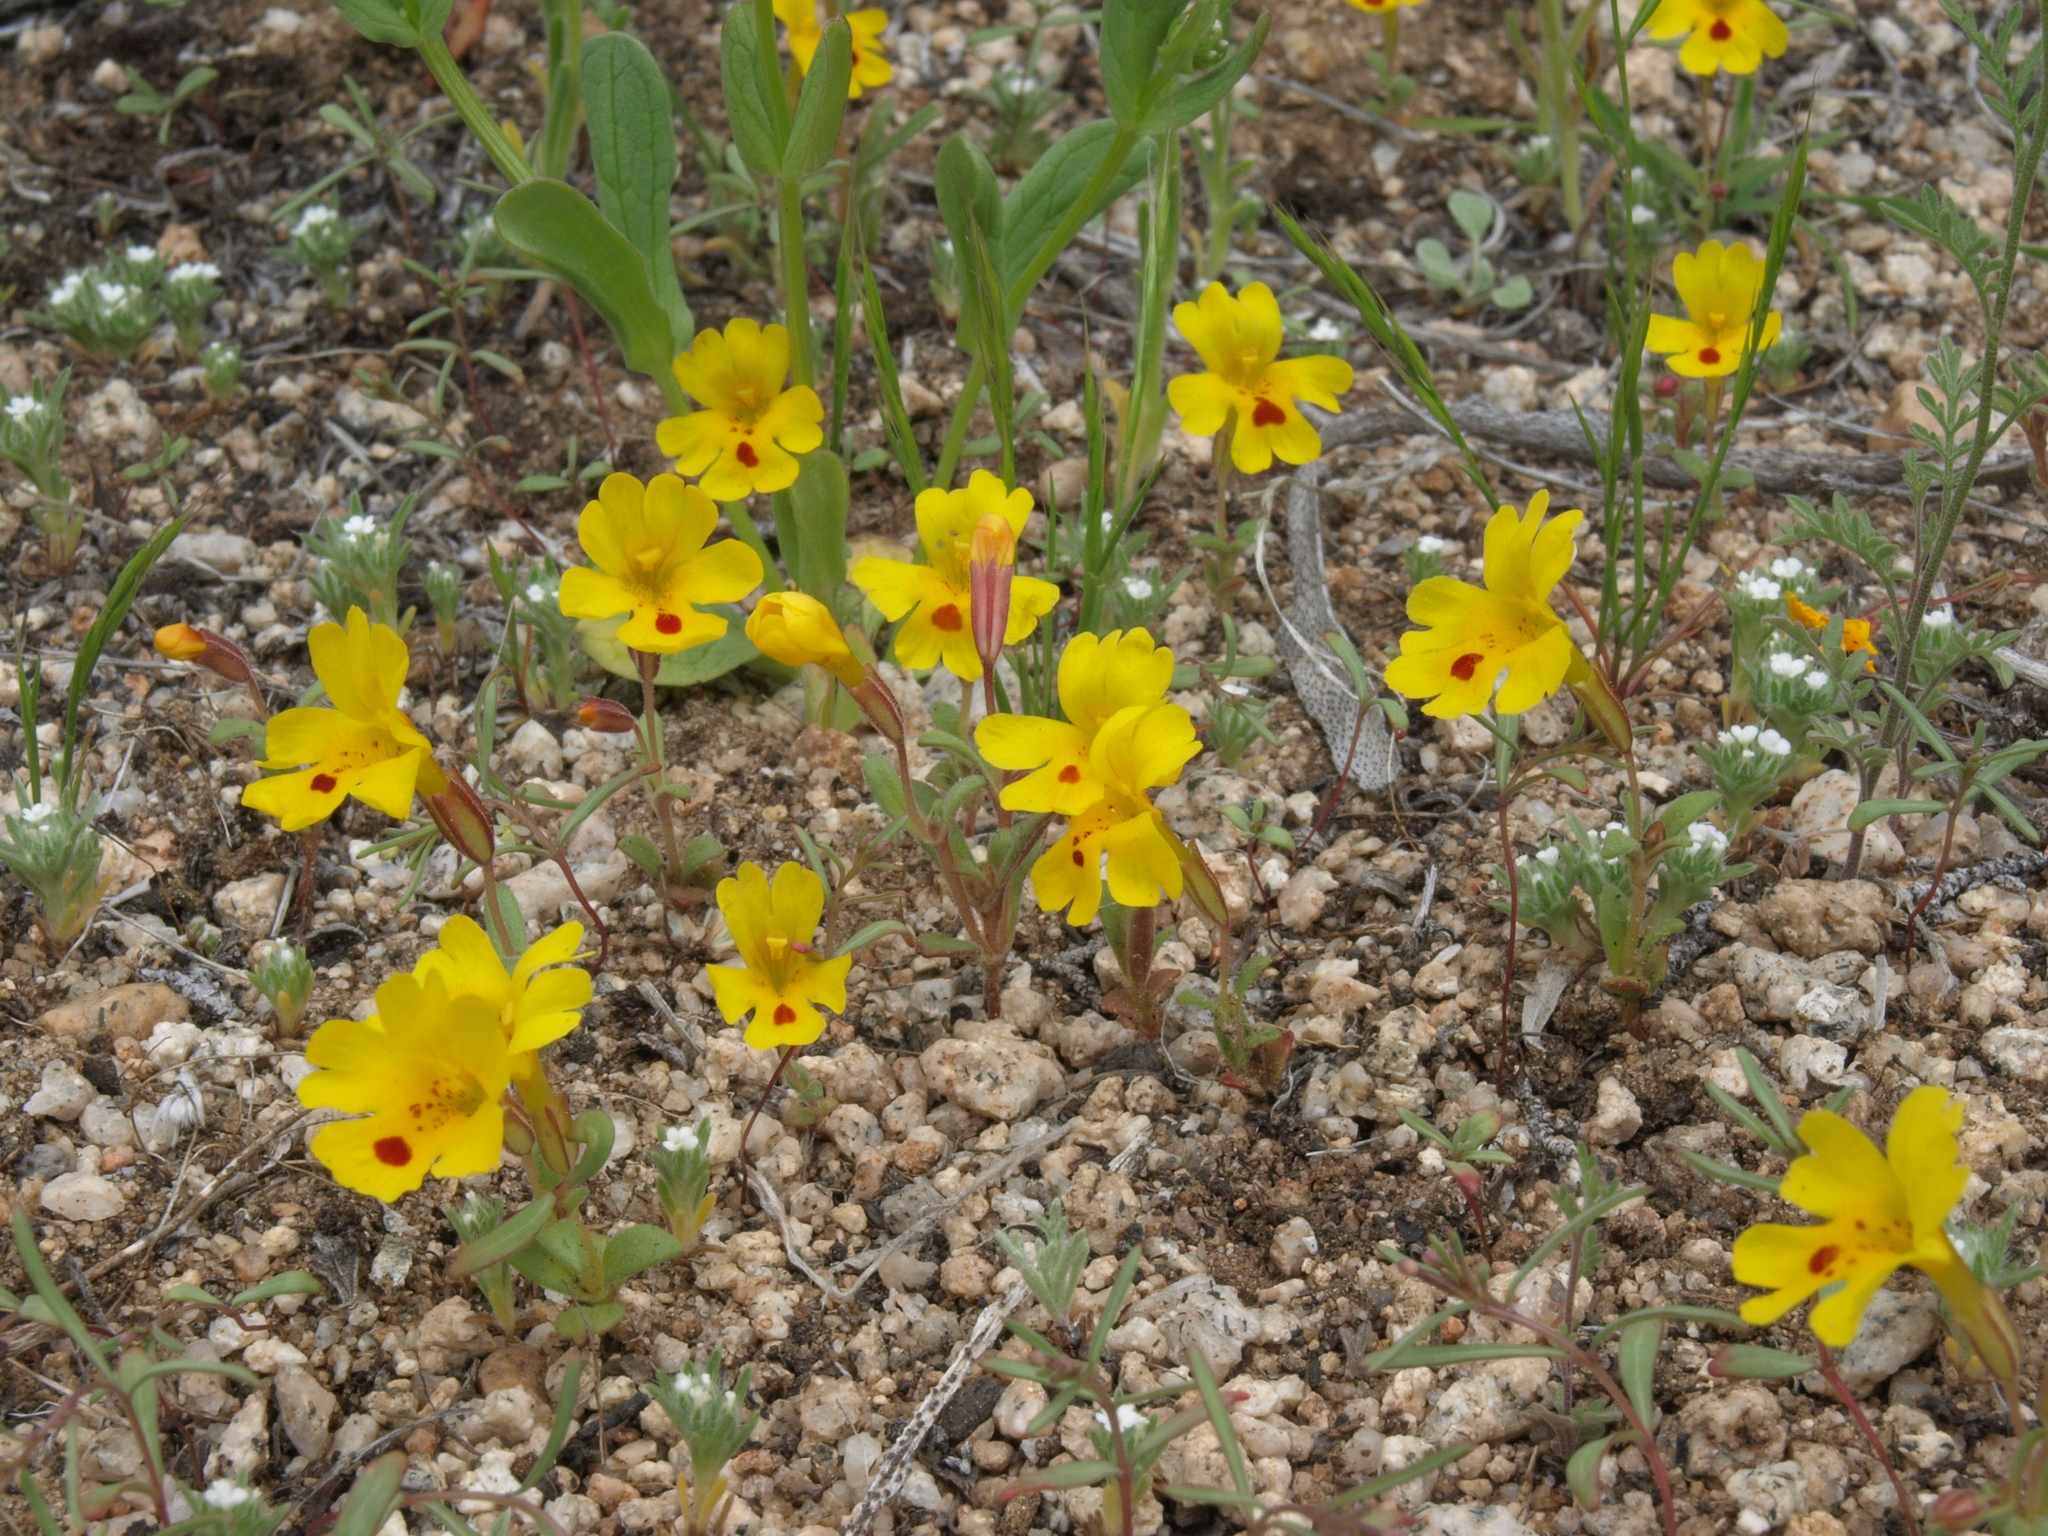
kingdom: Plantae
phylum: Tracheophyta
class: Magnoliopsida
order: Lamiales
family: Phrymaceae
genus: Erythranthe
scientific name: Erythranthe carsonensis
